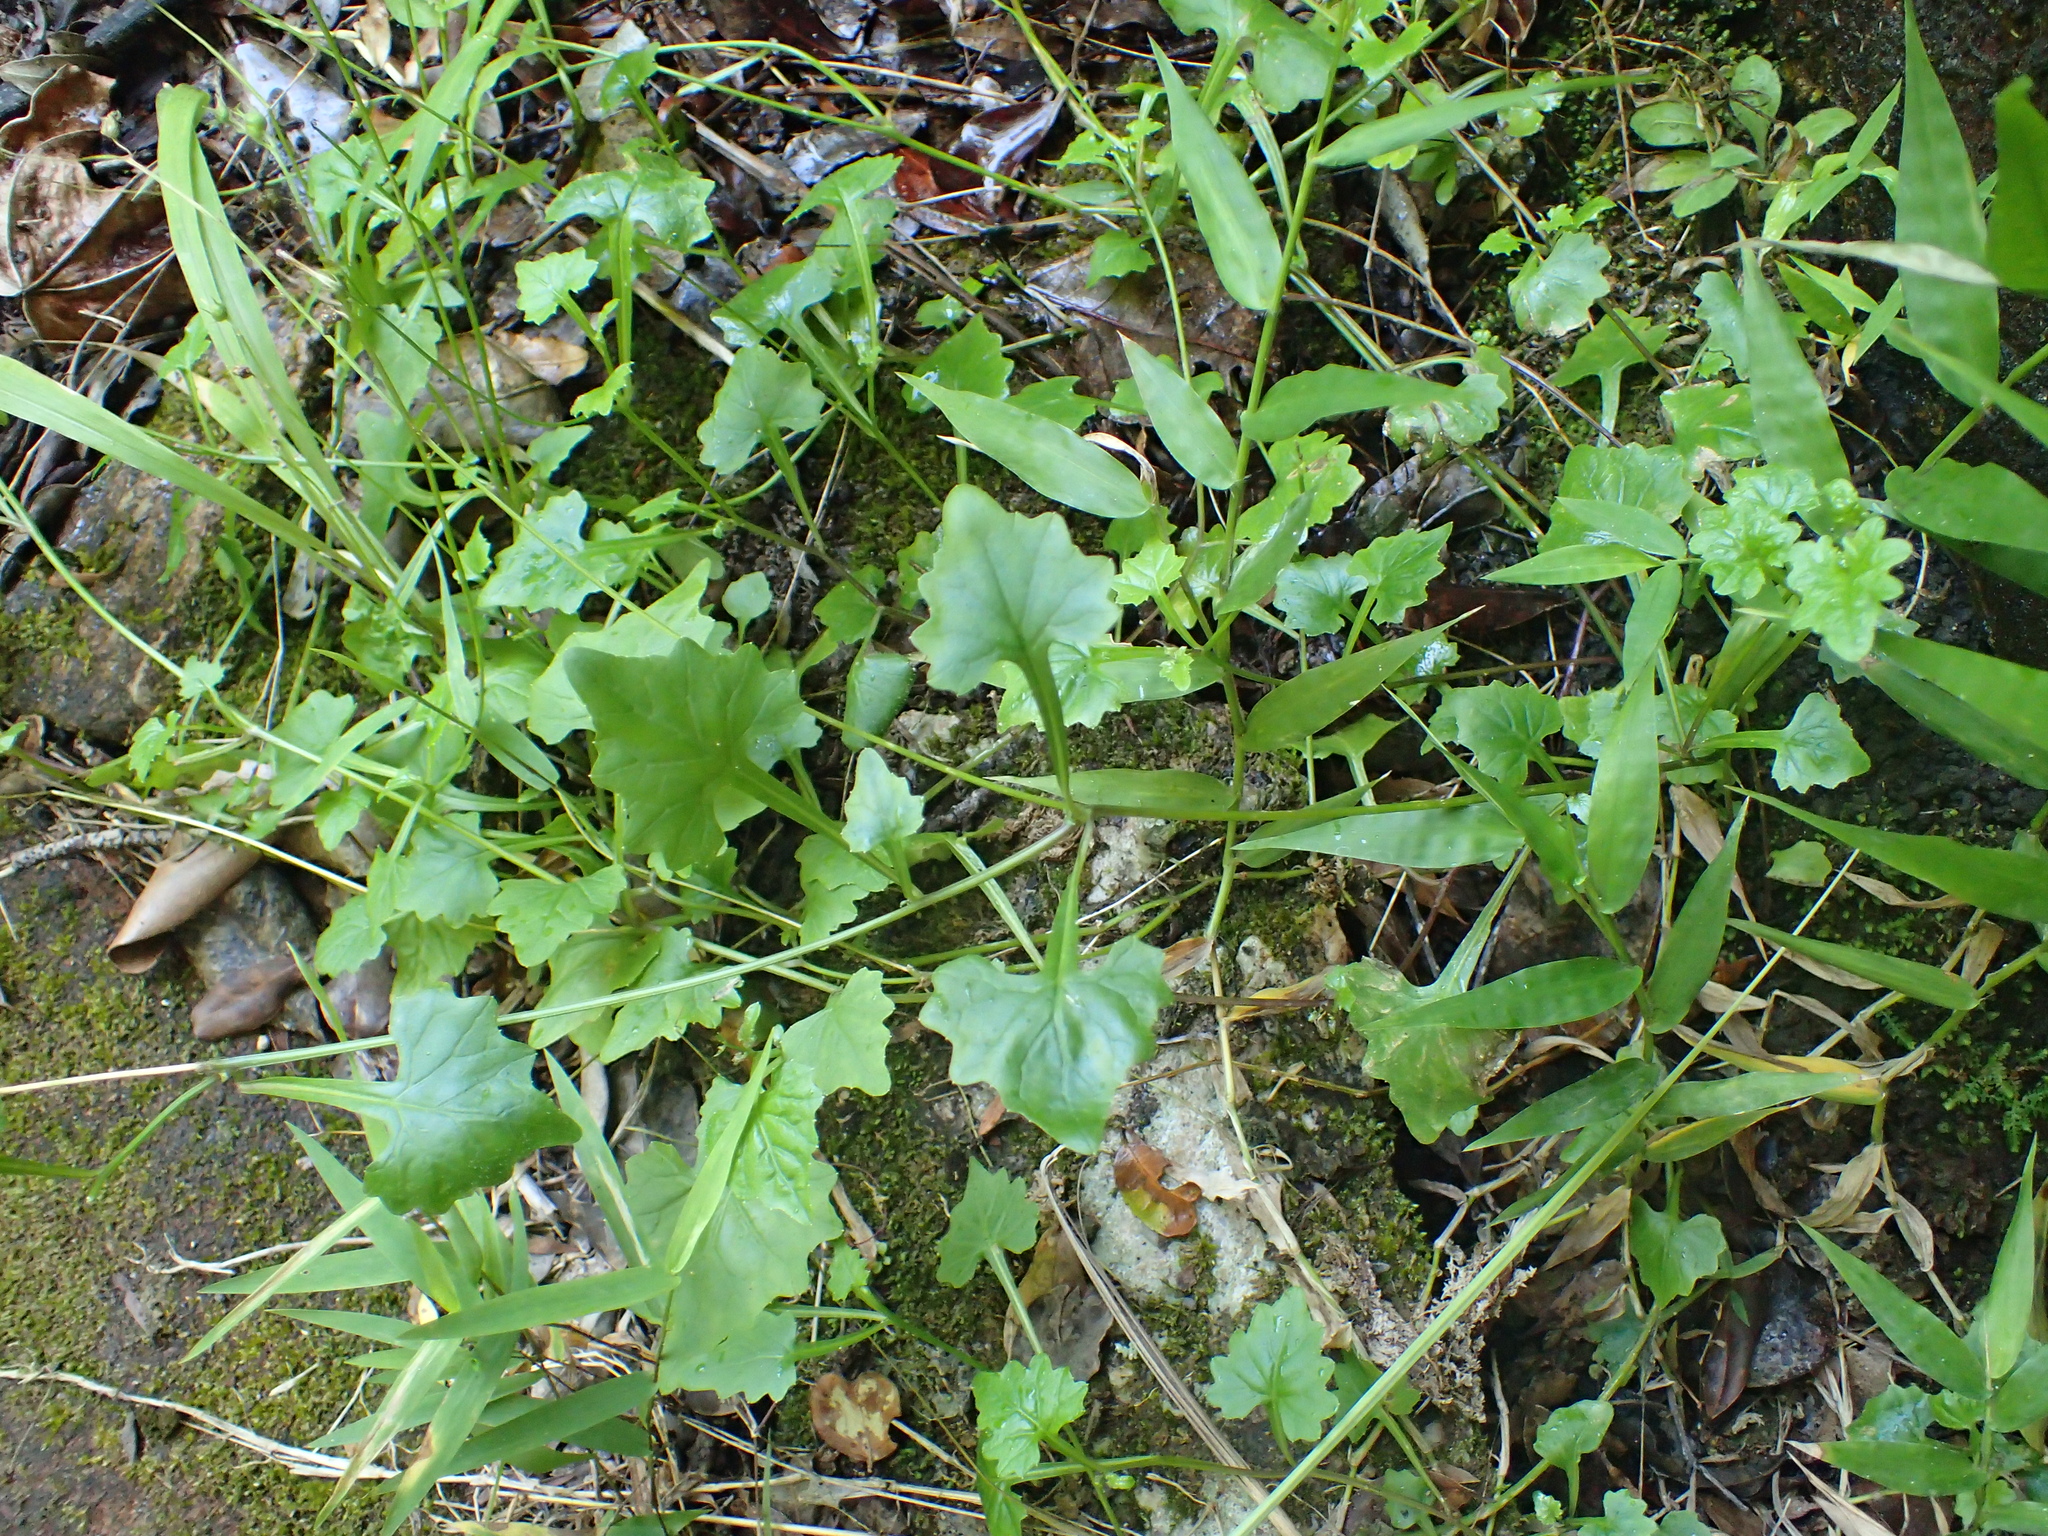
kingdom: Plantae
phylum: Tracheophyta
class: Magnoliopsida
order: Asterales
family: Campanulaceae
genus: Lobelia
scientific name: Lobelia pteropoda
